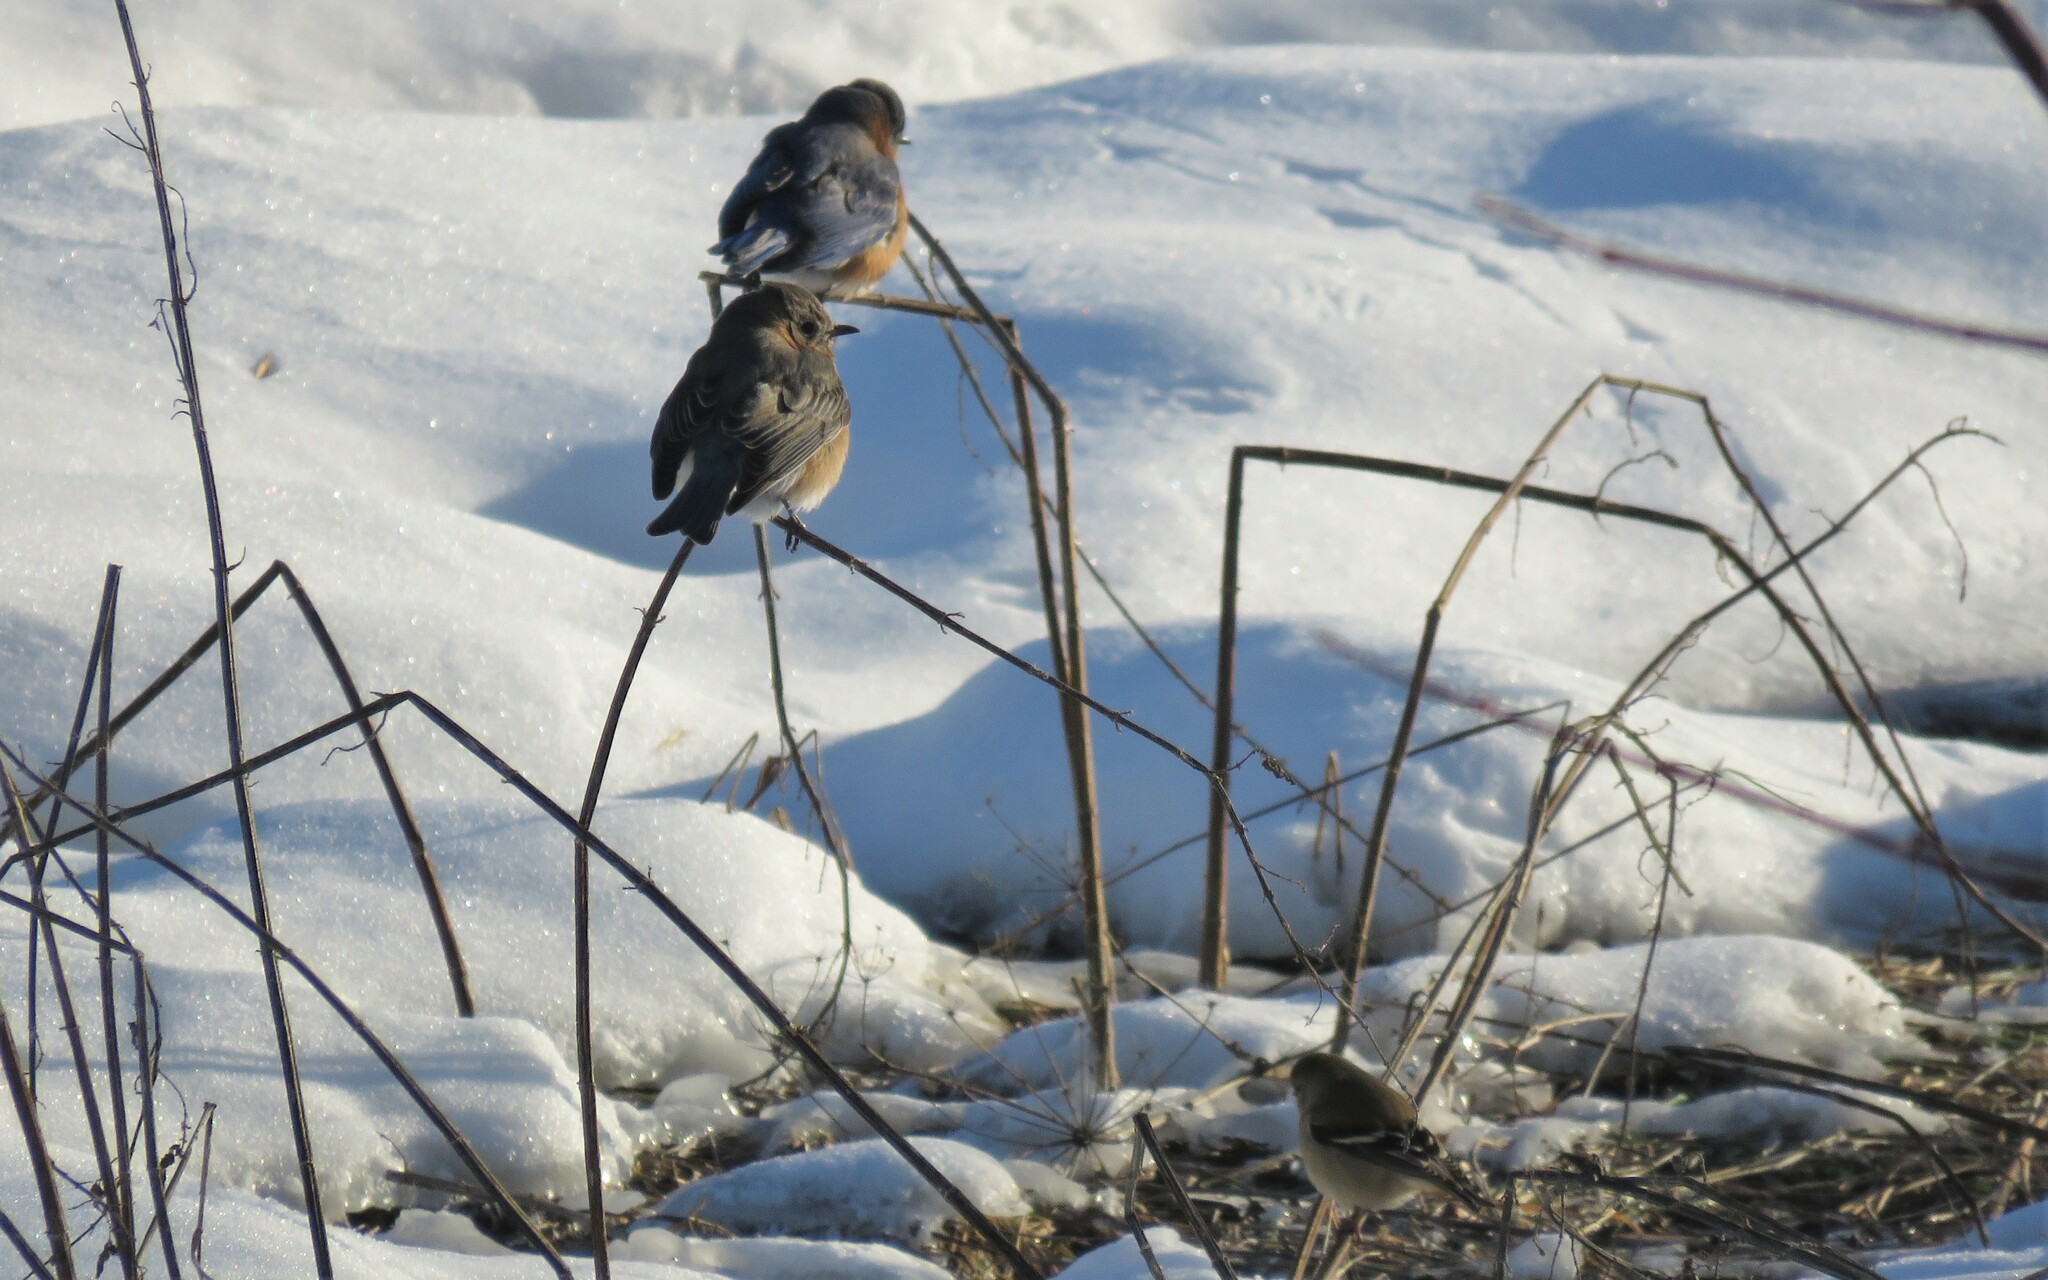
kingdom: Animalia
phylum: Chordata
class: Aves
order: Passeriformes
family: Turdidae
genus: Sialia
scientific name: Sialia sialis
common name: Eastern bluebird
